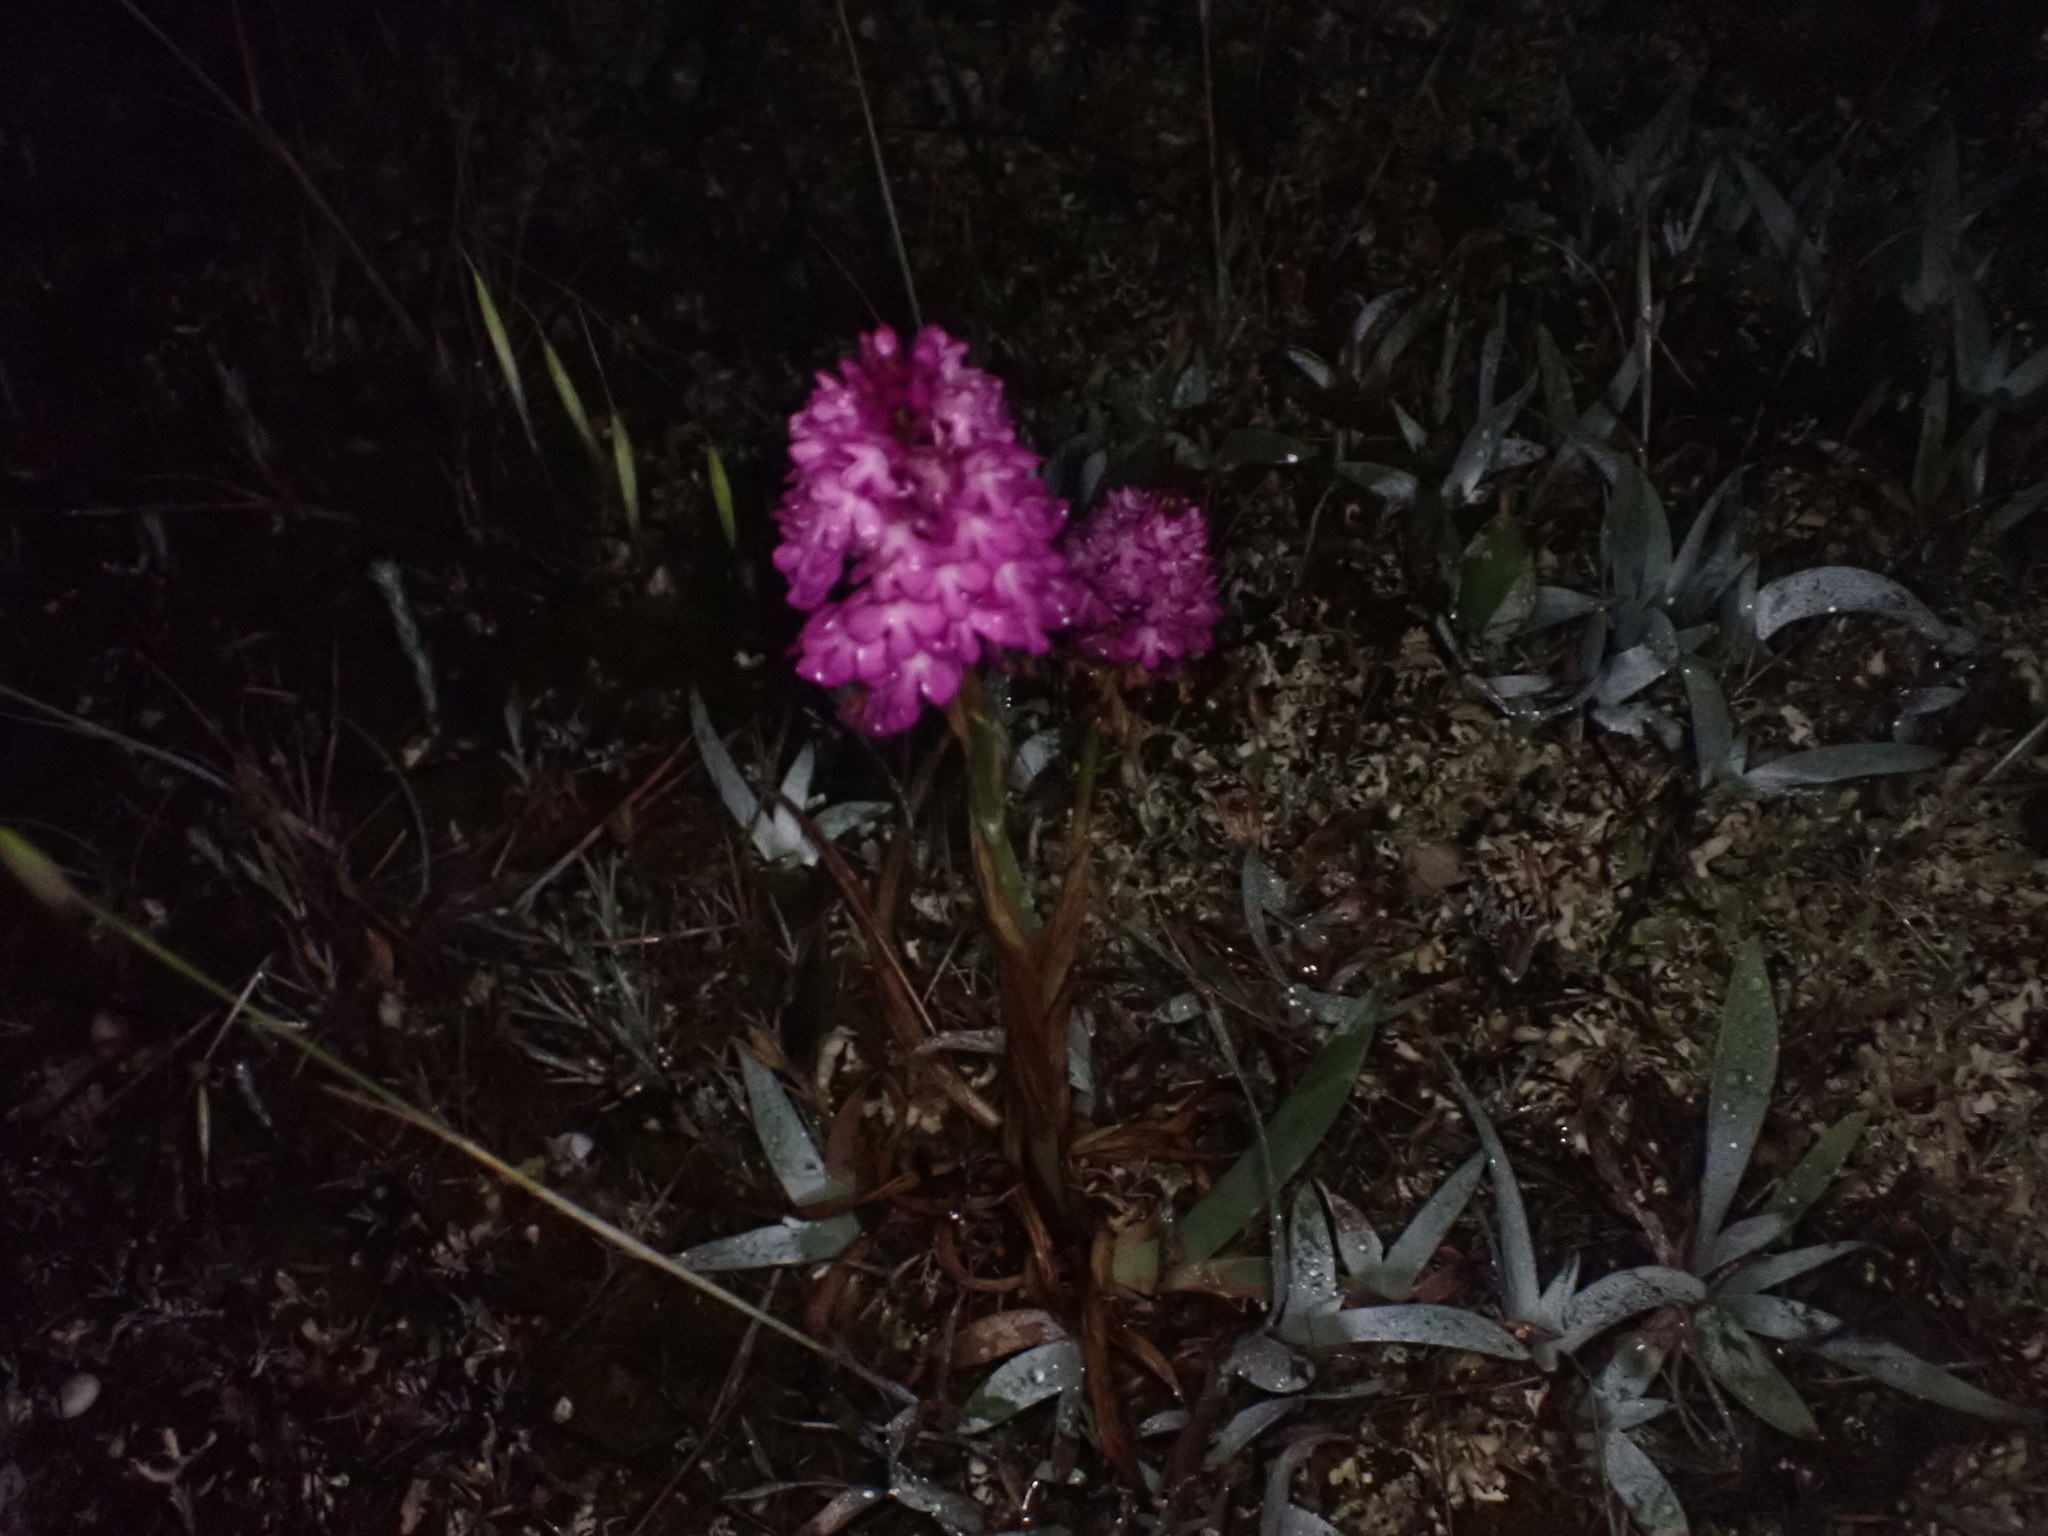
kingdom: Plantae
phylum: Tracheophyta
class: Liliopsida
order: Asparagales
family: Orchidaceae
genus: Anacamptis
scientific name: Anacamptis pyramidalis
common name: Pyramidal orchid
